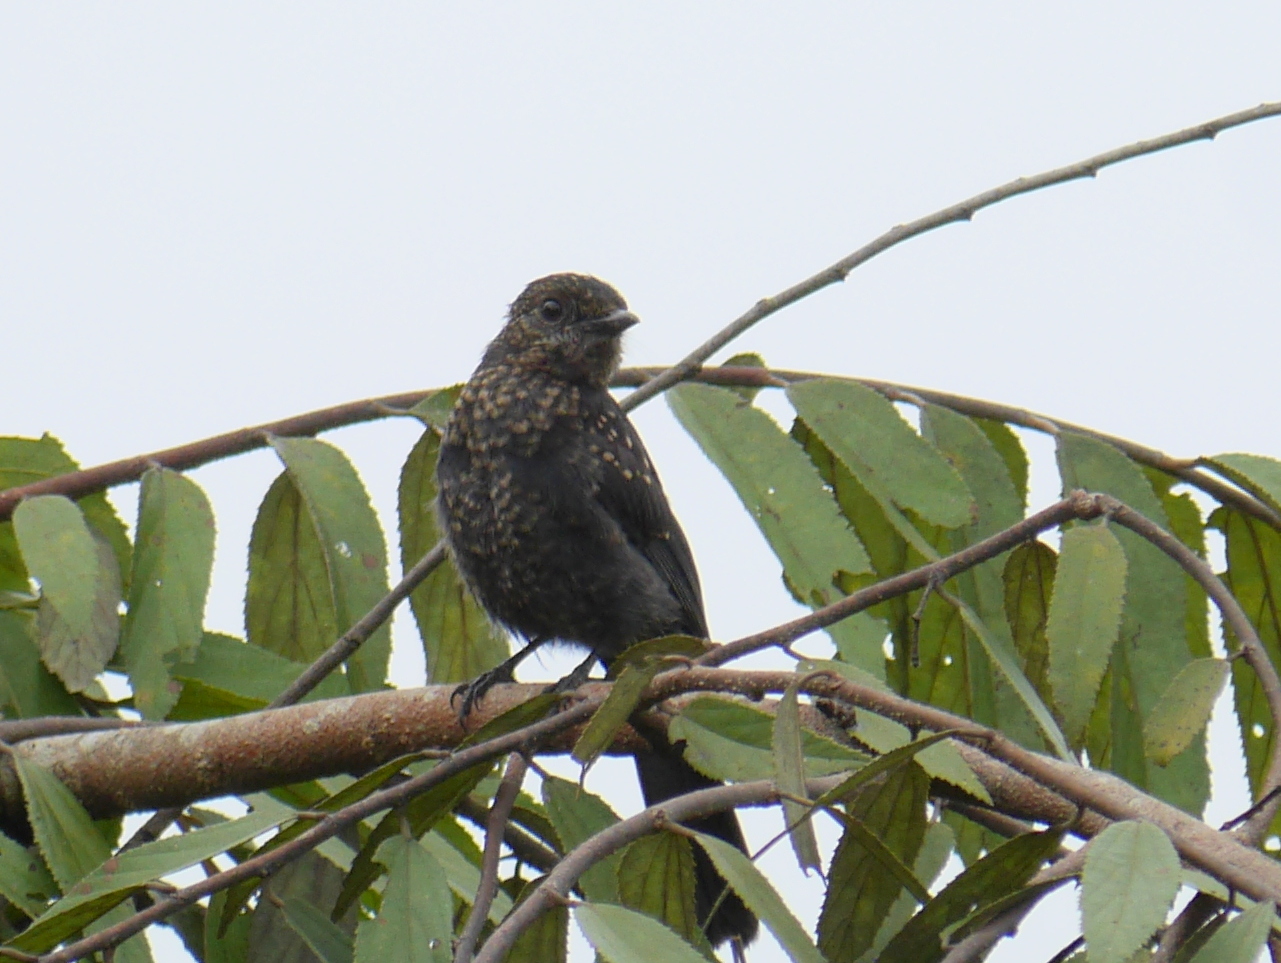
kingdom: Animalia
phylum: Chordata
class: Aves
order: Passeriformes
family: Muscicapidae
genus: Melaenornis
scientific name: Melaenornis edolioides
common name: Northern black flycatcher
